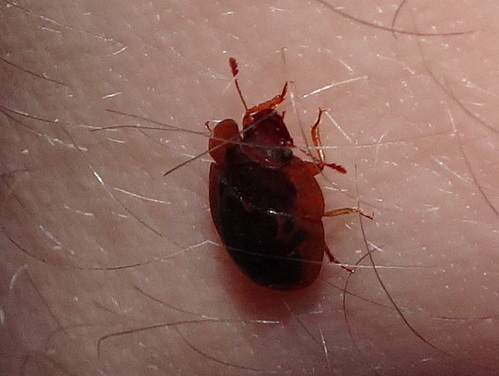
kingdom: Animalia
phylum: Arthropoda
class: Insecta
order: Coleoptera
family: Nitidulidae
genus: Prometopia
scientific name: Prometopia sexmaculata
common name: Six-spotted sap-feeding beetle
